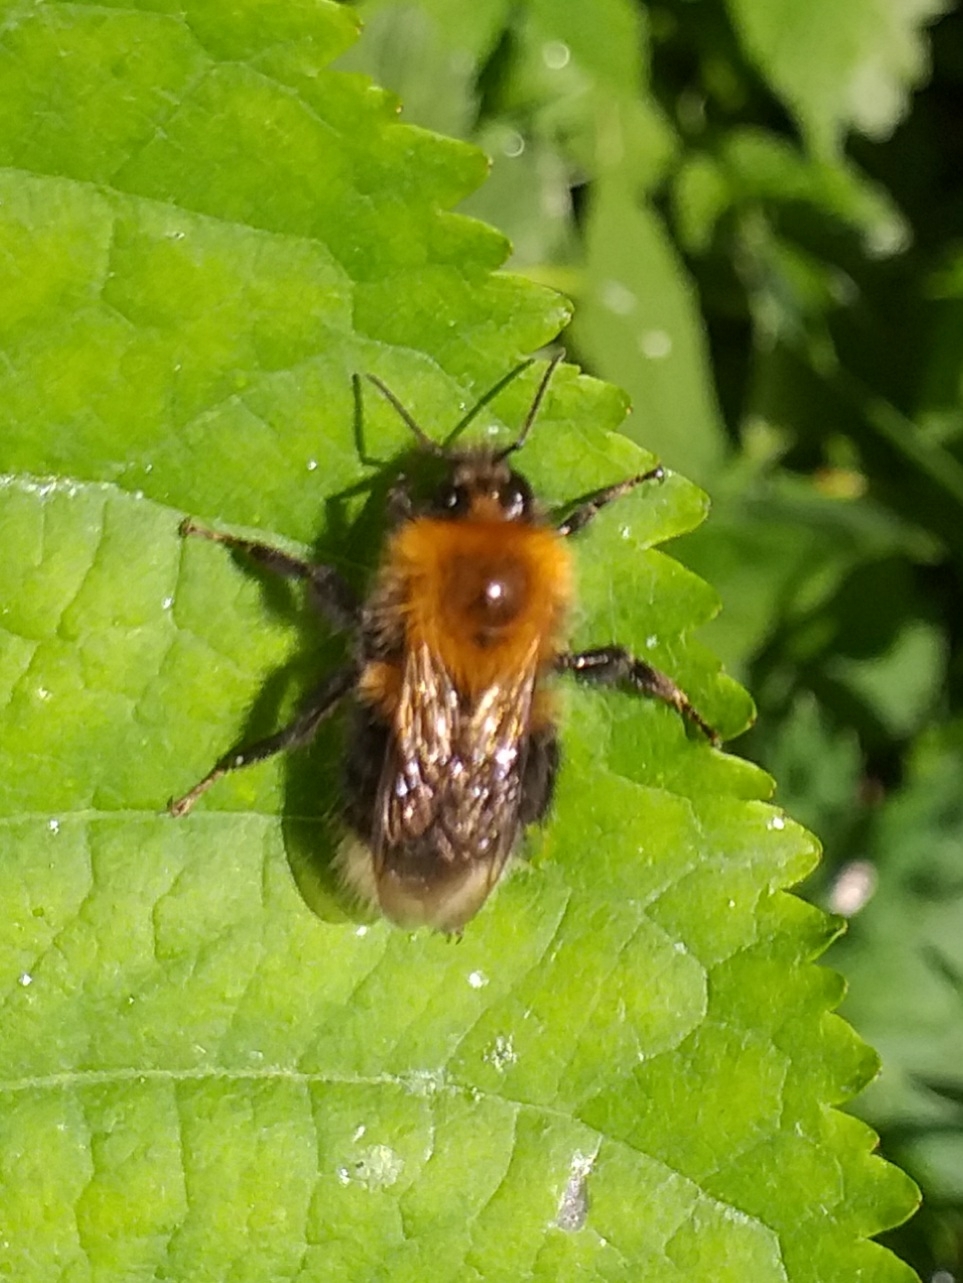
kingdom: Animalia
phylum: Arthropoda
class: Insecta
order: Hymenoptera
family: Apidae
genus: Bombus
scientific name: Bombus hypnorum
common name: New garden bumblebee
